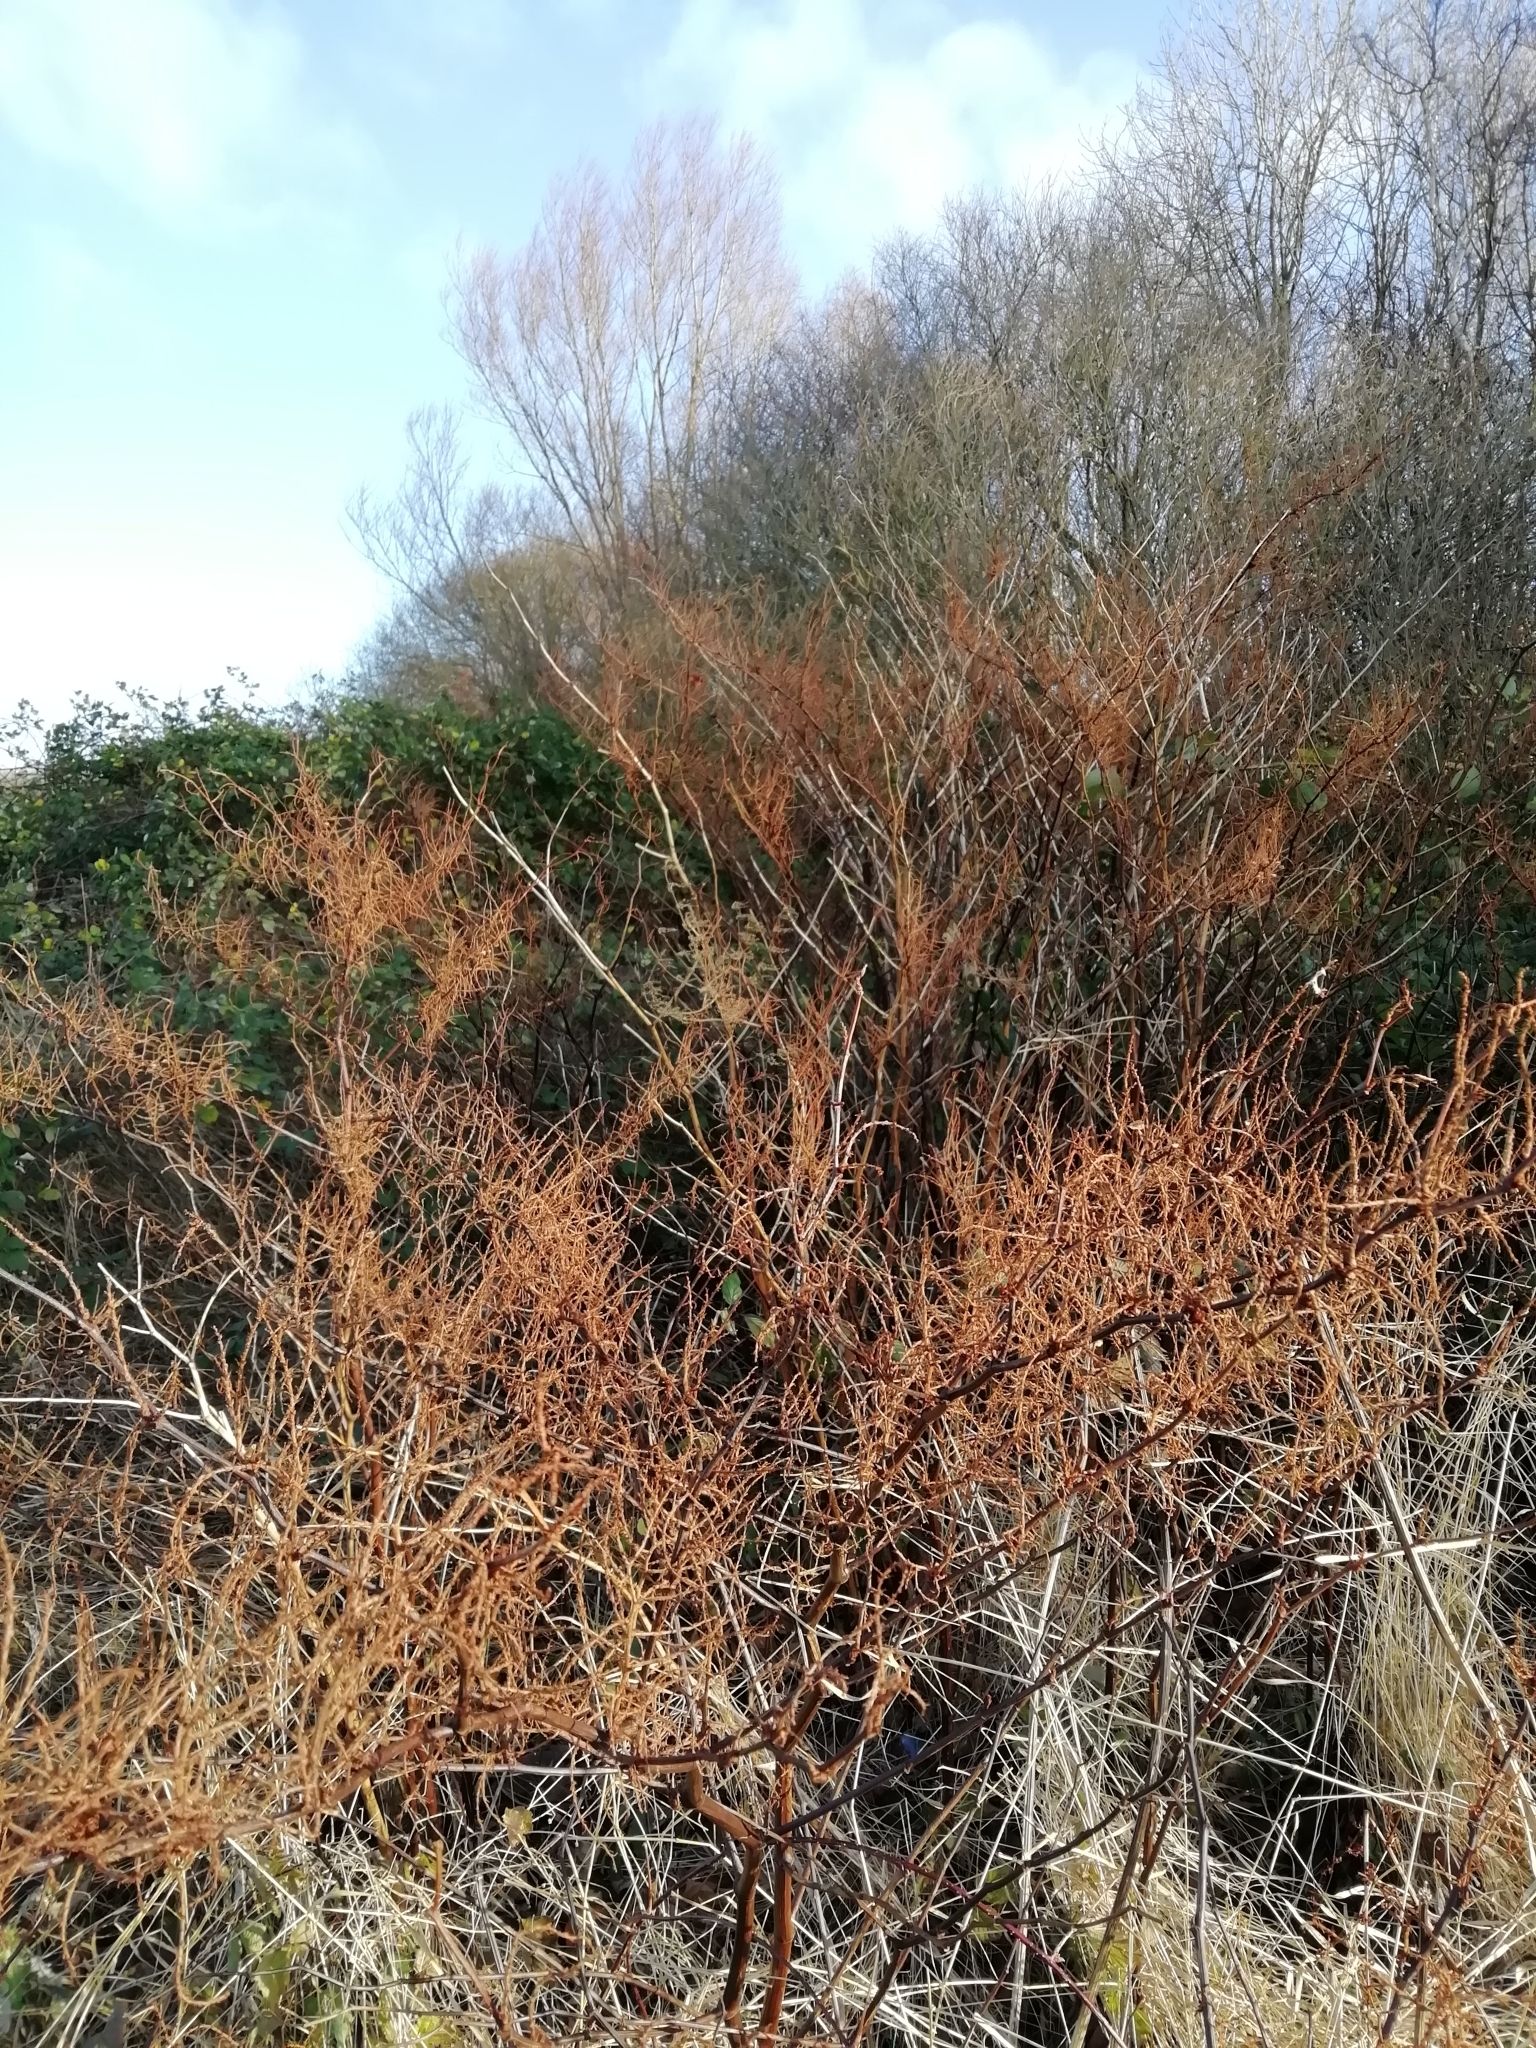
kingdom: Plantae
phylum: Tracheophyta
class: Magnoliopsida
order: Caryophyllales
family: Polygonaceae
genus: Reynoutria
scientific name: Reynoutria japonica
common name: Japanese knotweed
